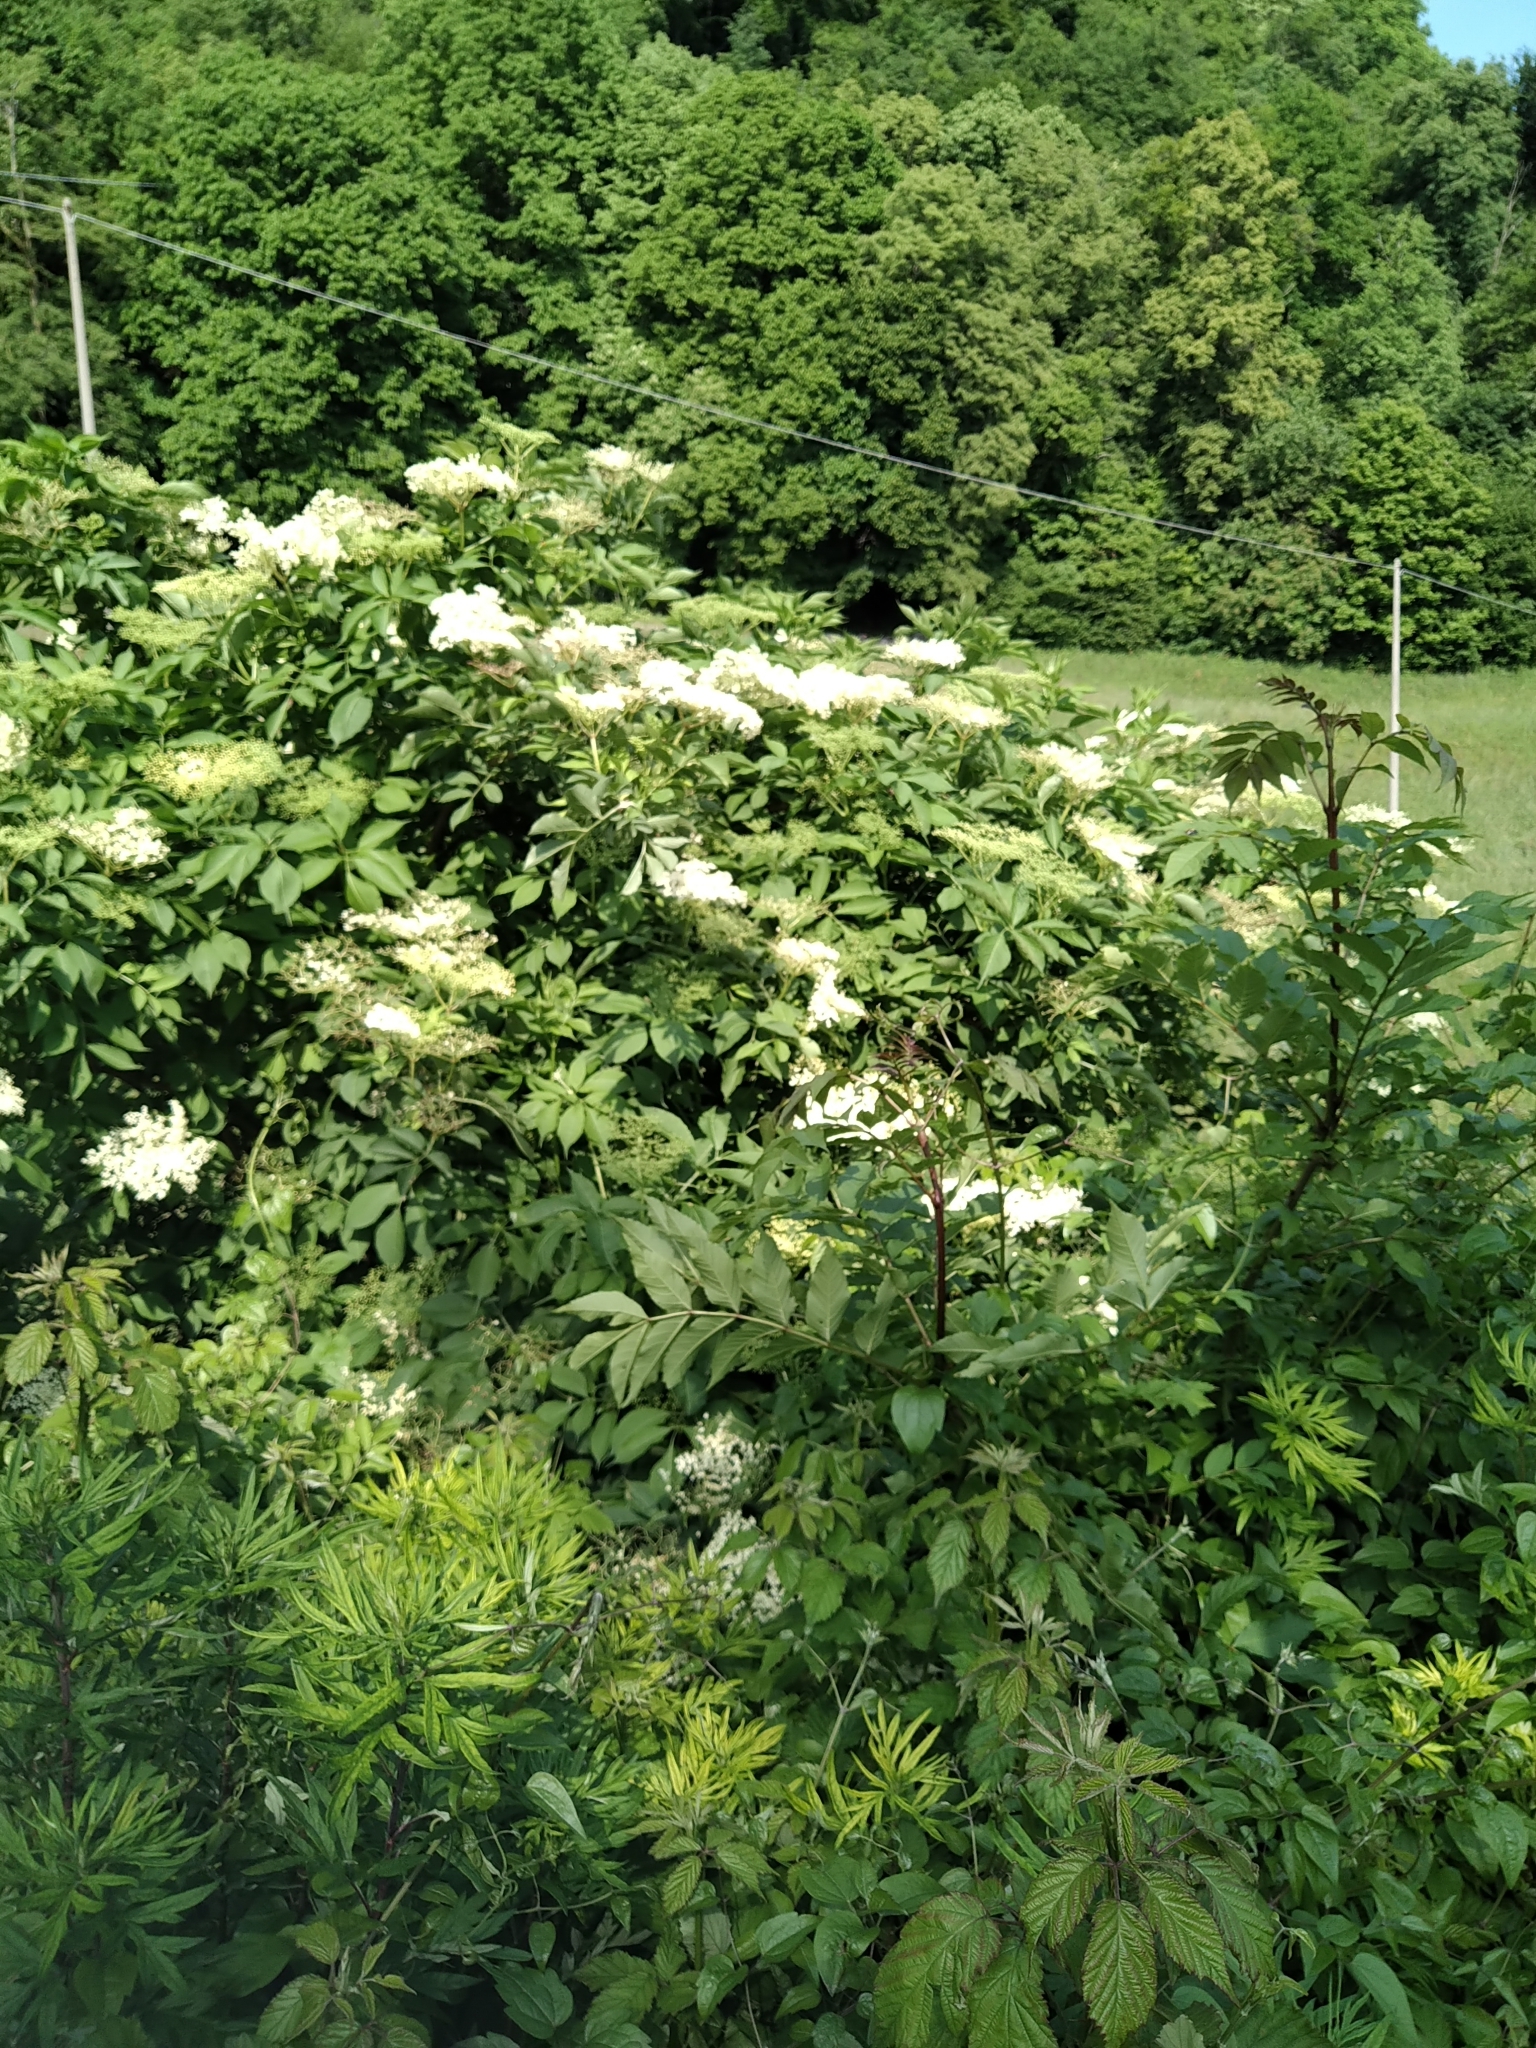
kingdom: Plantae
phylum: Tracheophyta
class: Magnoliopsida
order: Dipsacales
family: Viburnaceae
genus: Sambucus
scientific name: Sambucus nigra
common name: Elder
